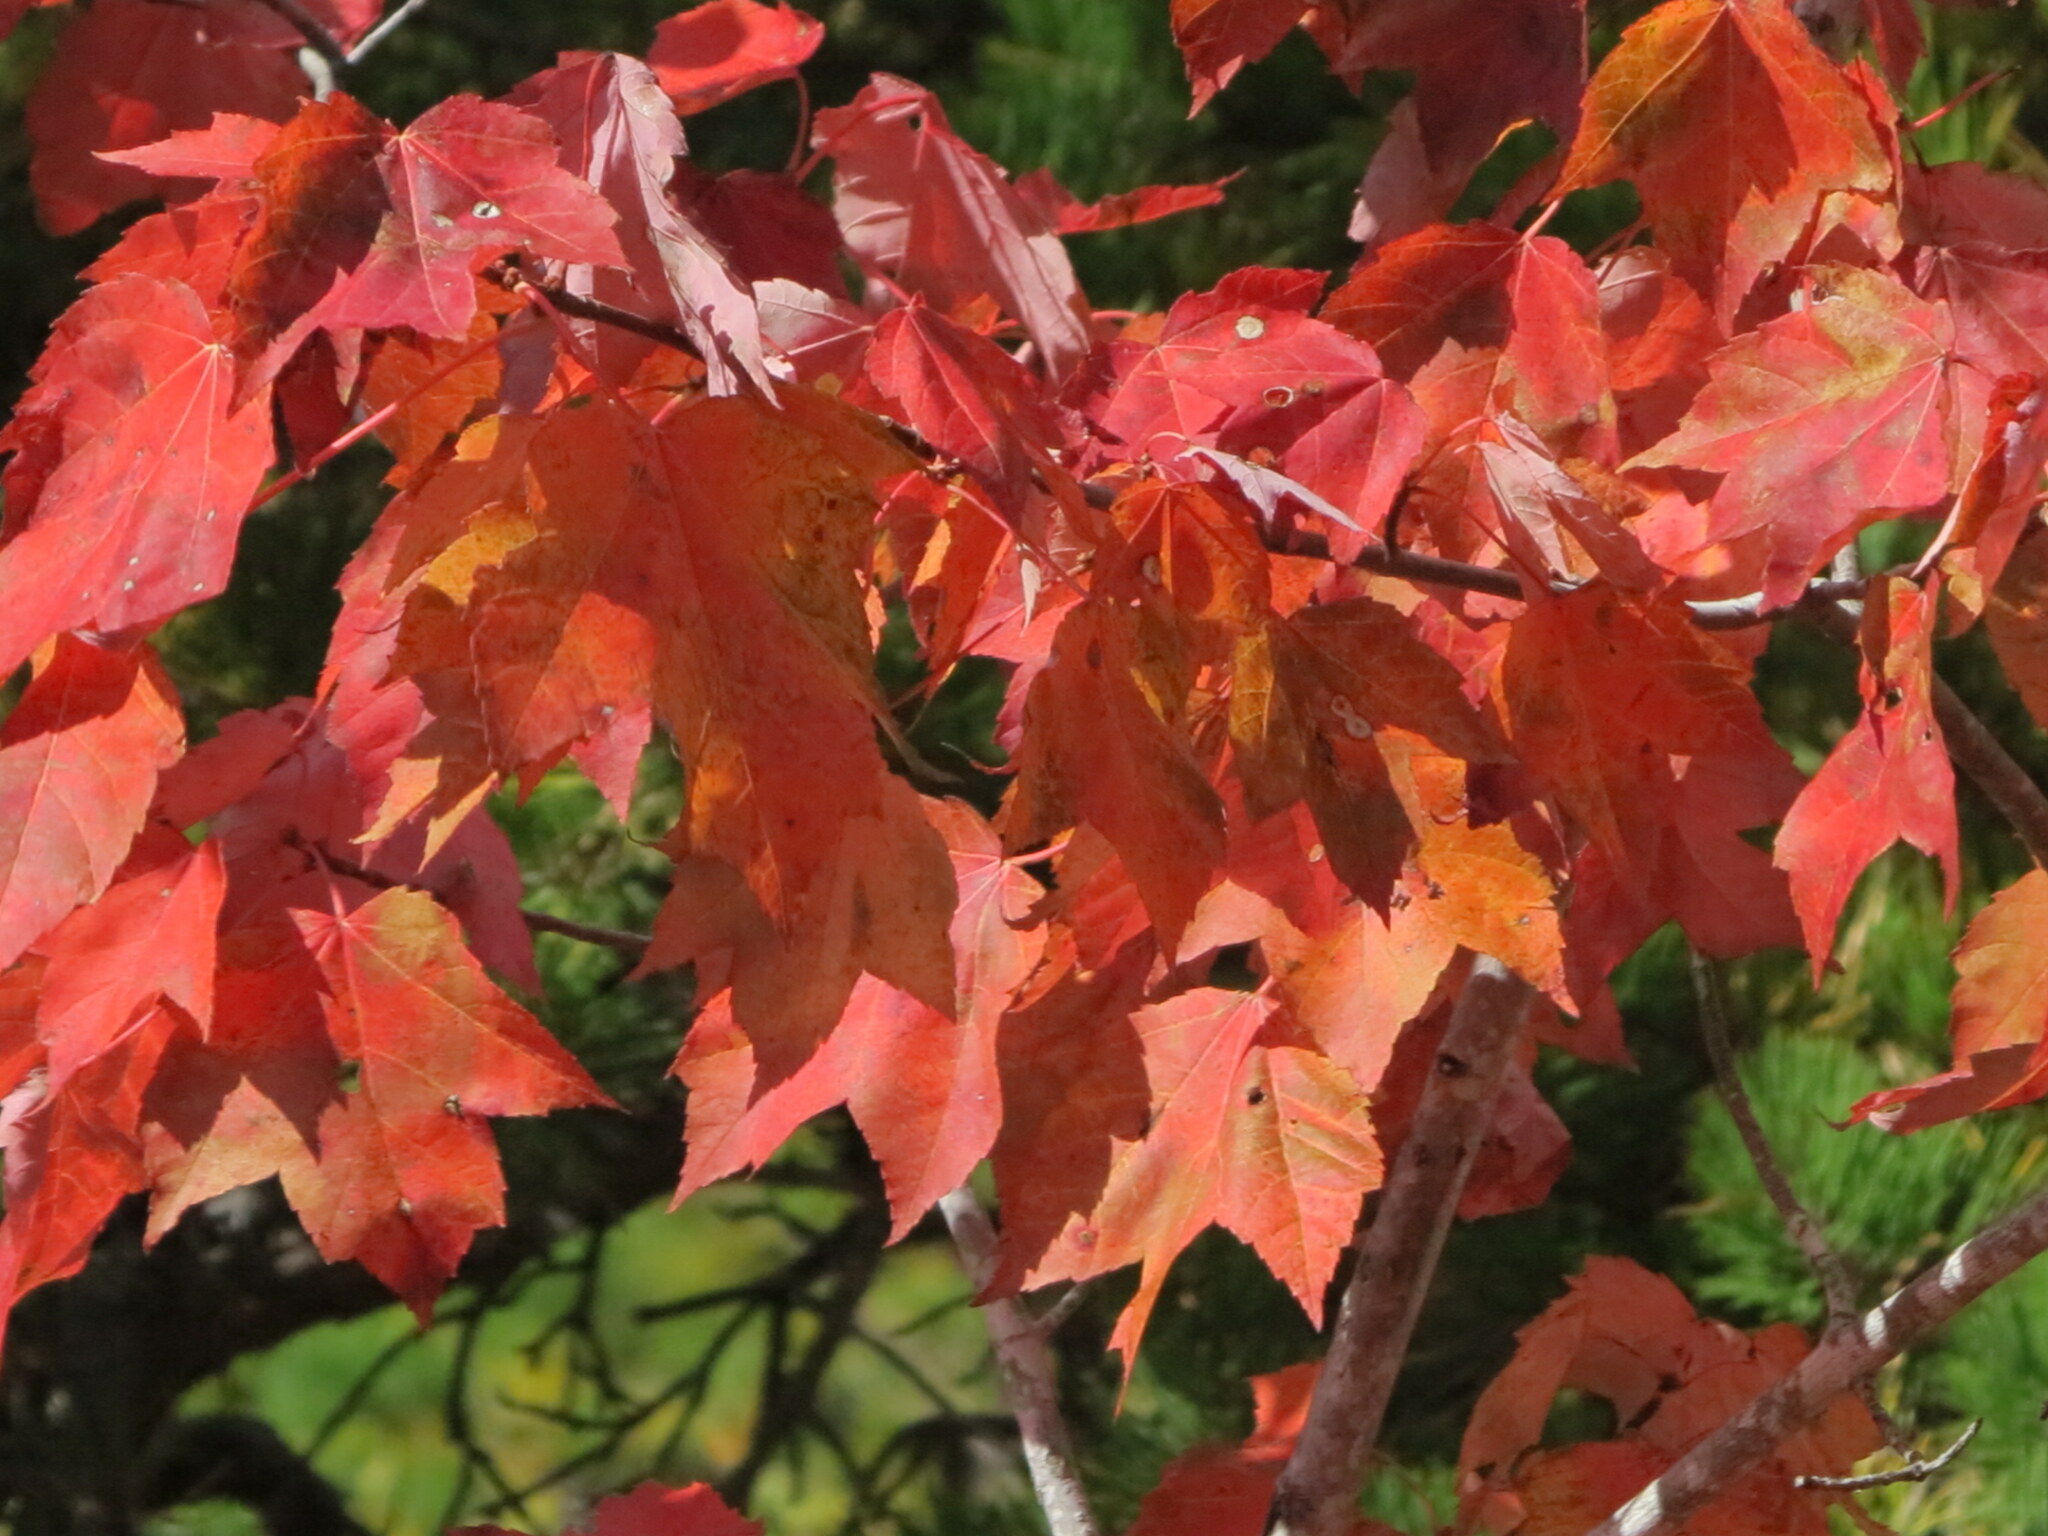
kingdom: Plantae
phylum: Tracheophyta
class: Magnoliopsida
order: Sapindales
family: Sapindaceae
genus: Acer
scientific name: Acer rubrum
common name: Red maple
